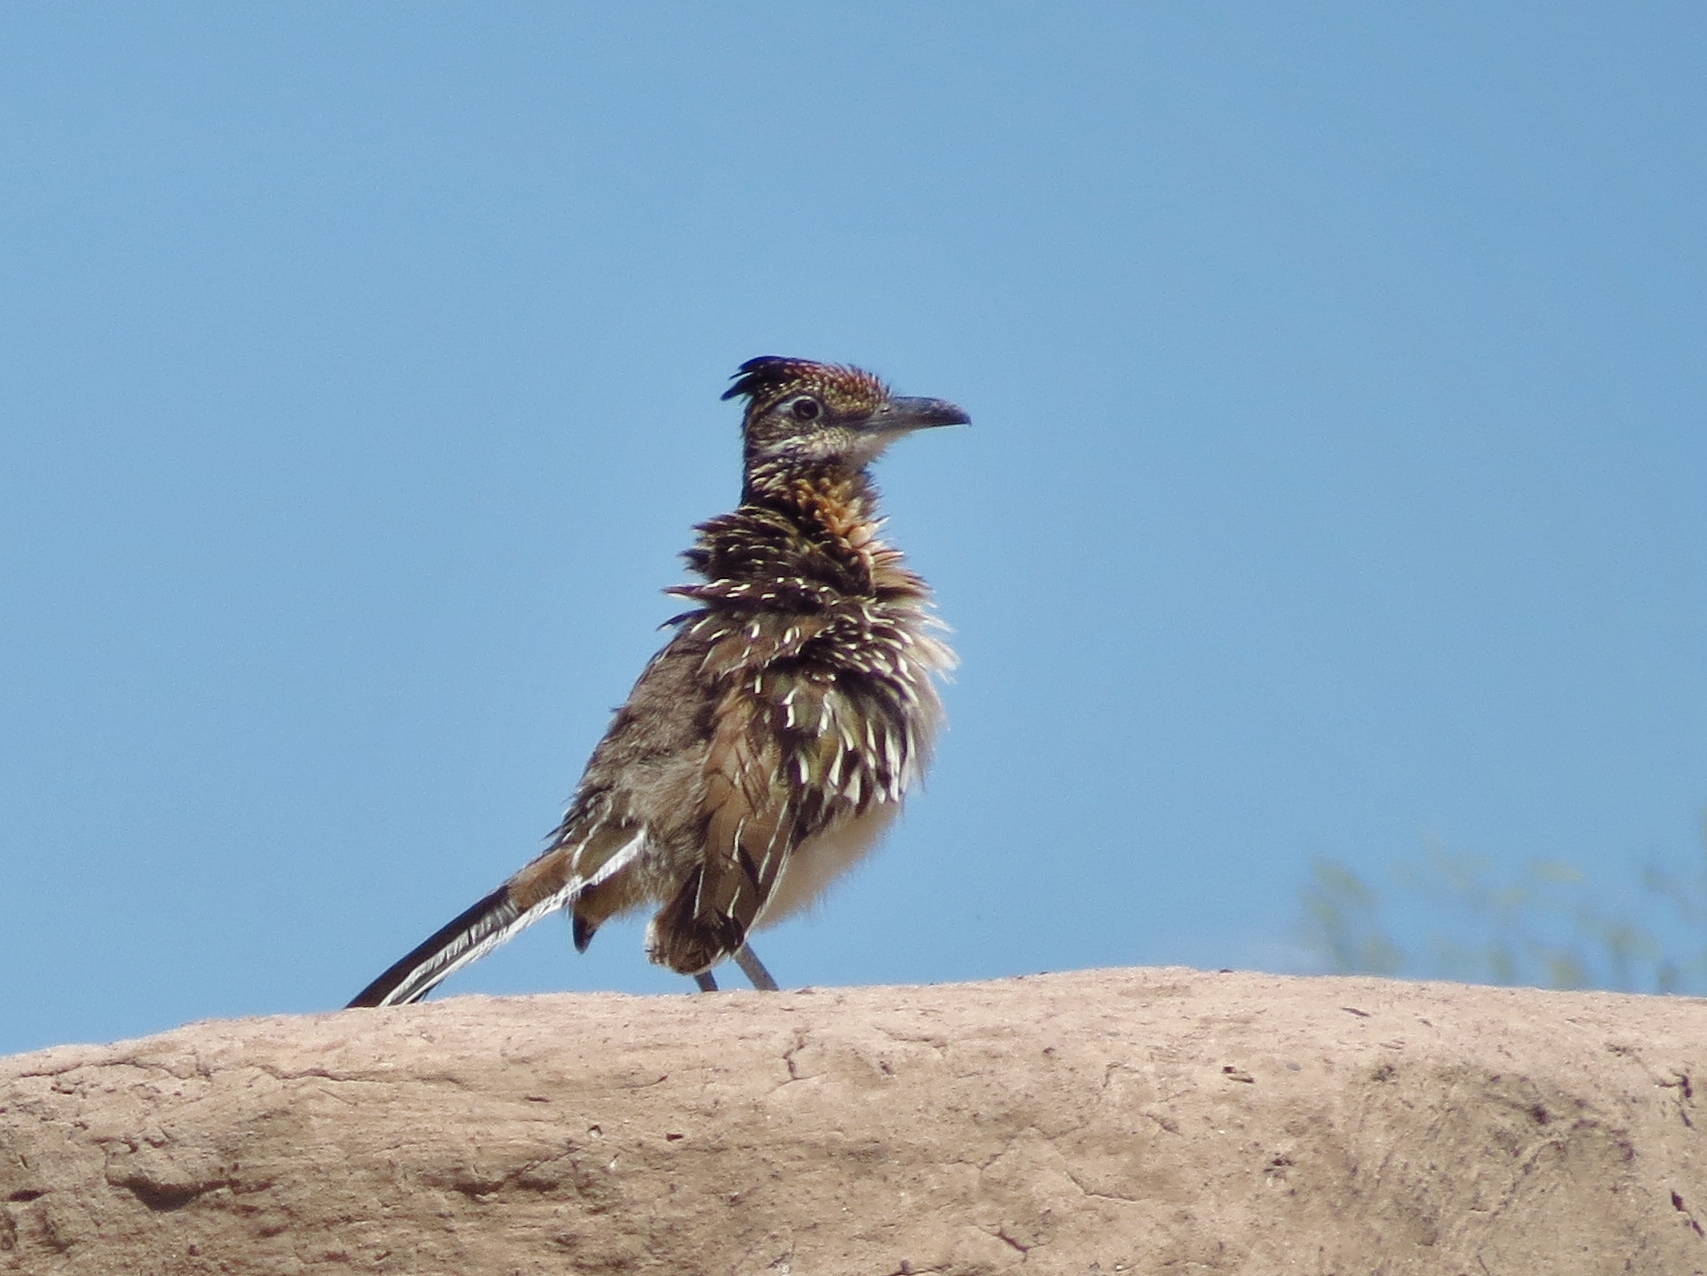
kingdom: Animalia
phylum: Chordata
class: Aves
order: Cuculiformes
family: Cuculidae
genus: Geococcyx
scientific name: Geococcyx californianus
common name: Greater roadrunner
